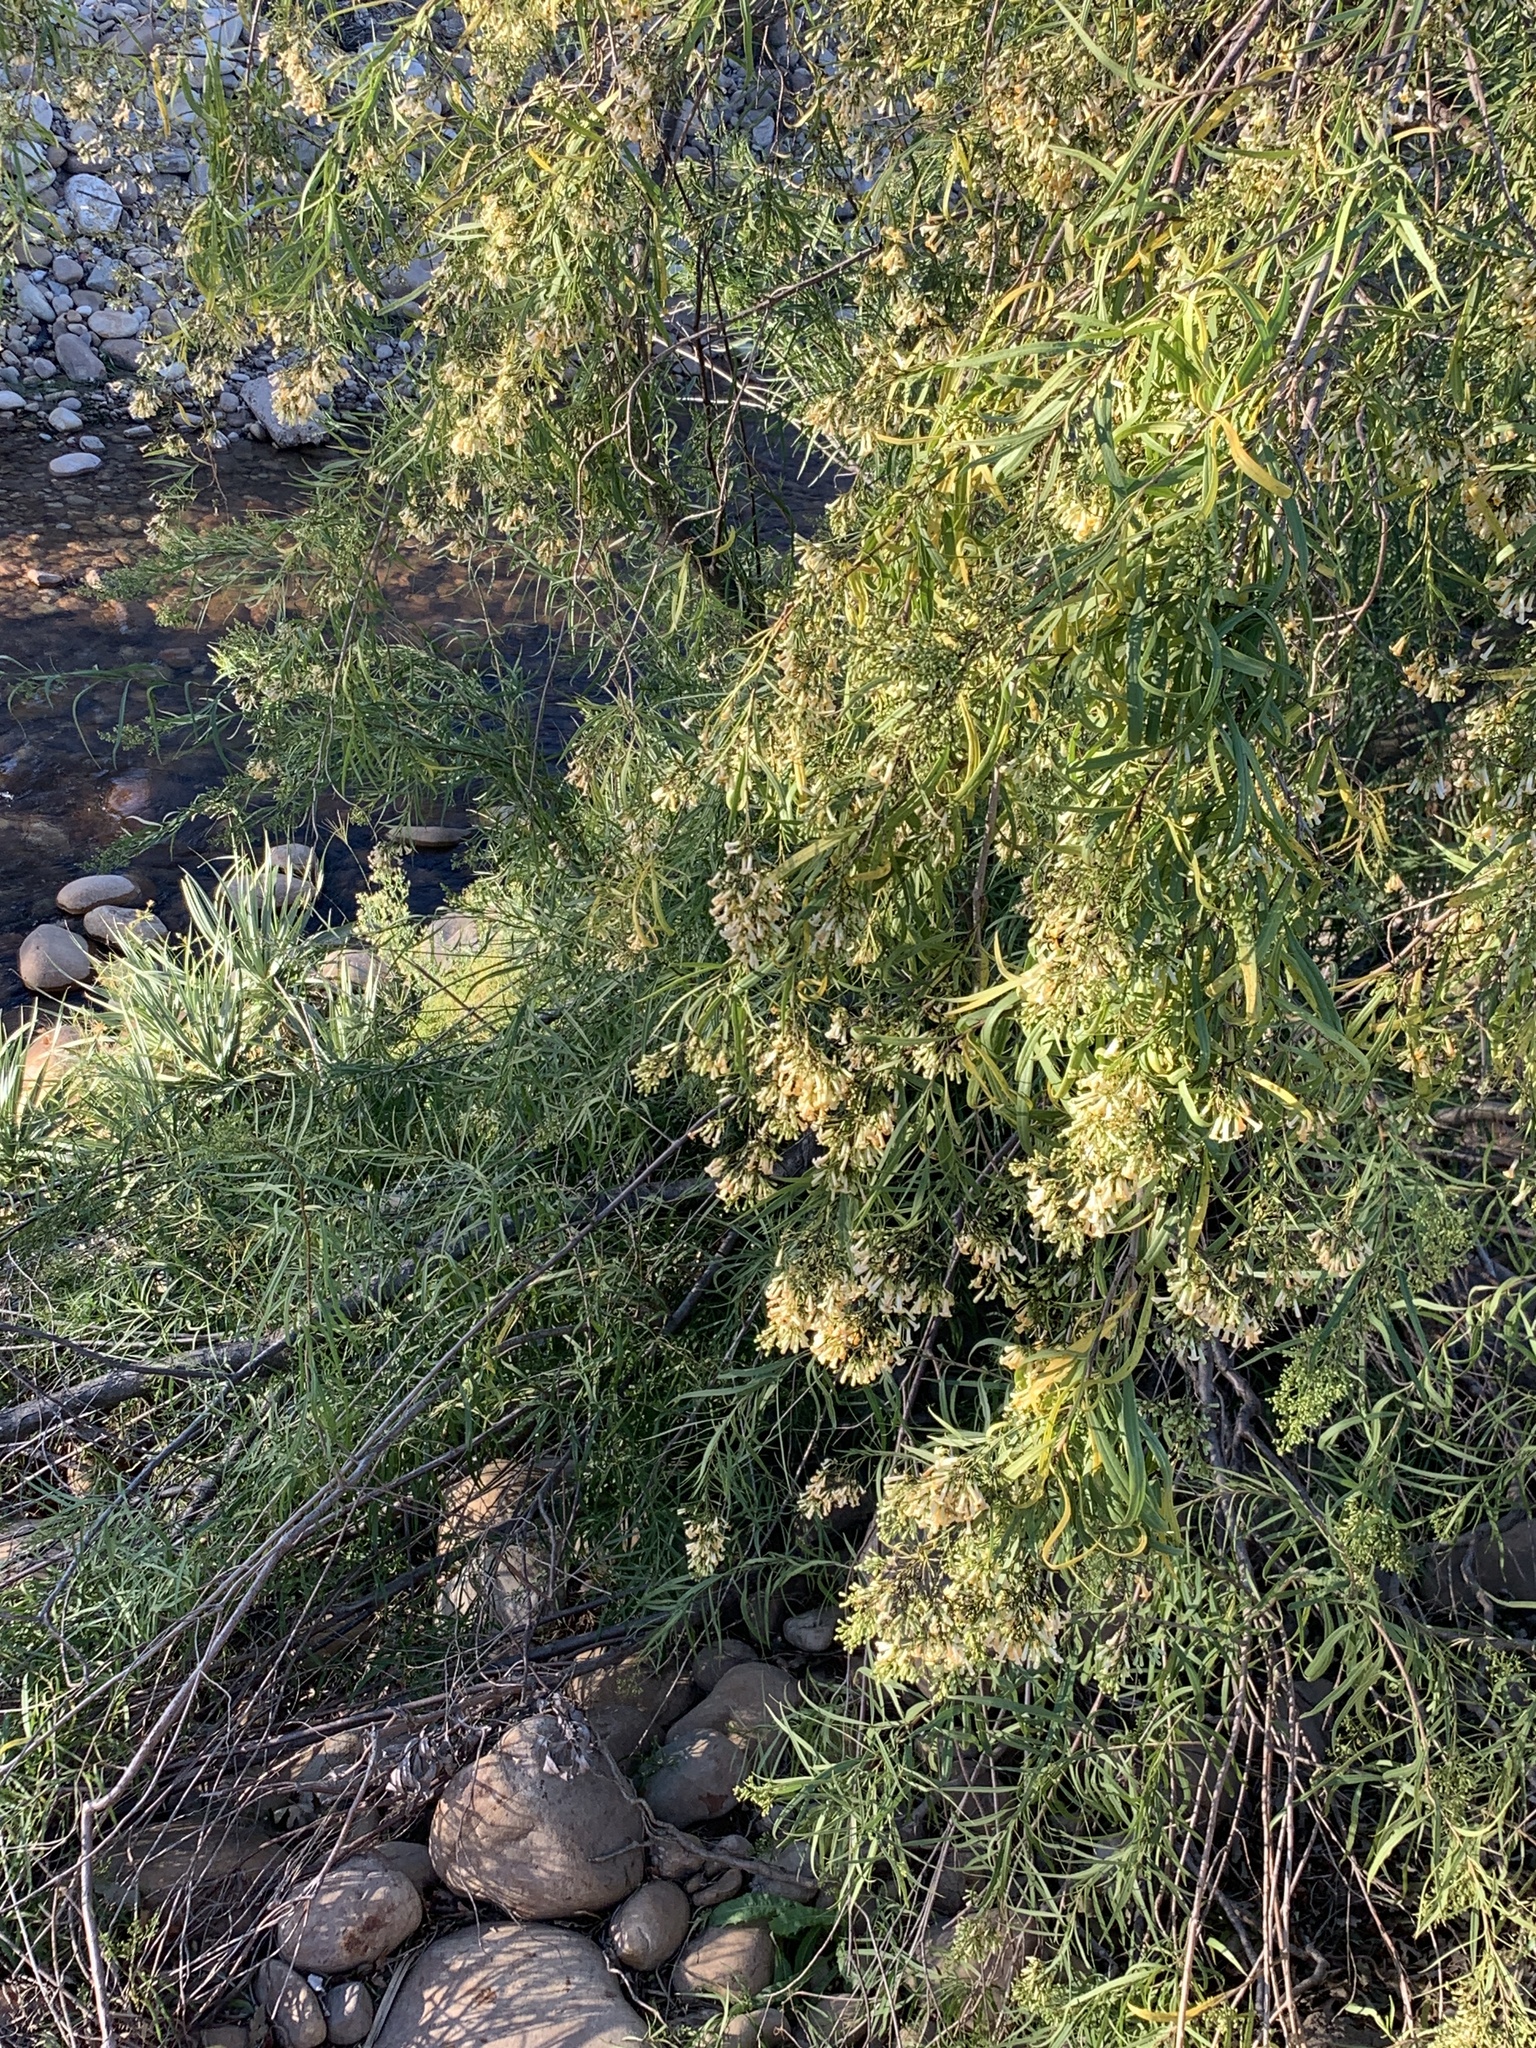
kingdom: Plantae
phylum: Tracheophyta
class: Magnoliopsida
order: Lamiales
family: Scrophulariaceae
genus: Freylinia
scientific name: Freylinia lanceolata
